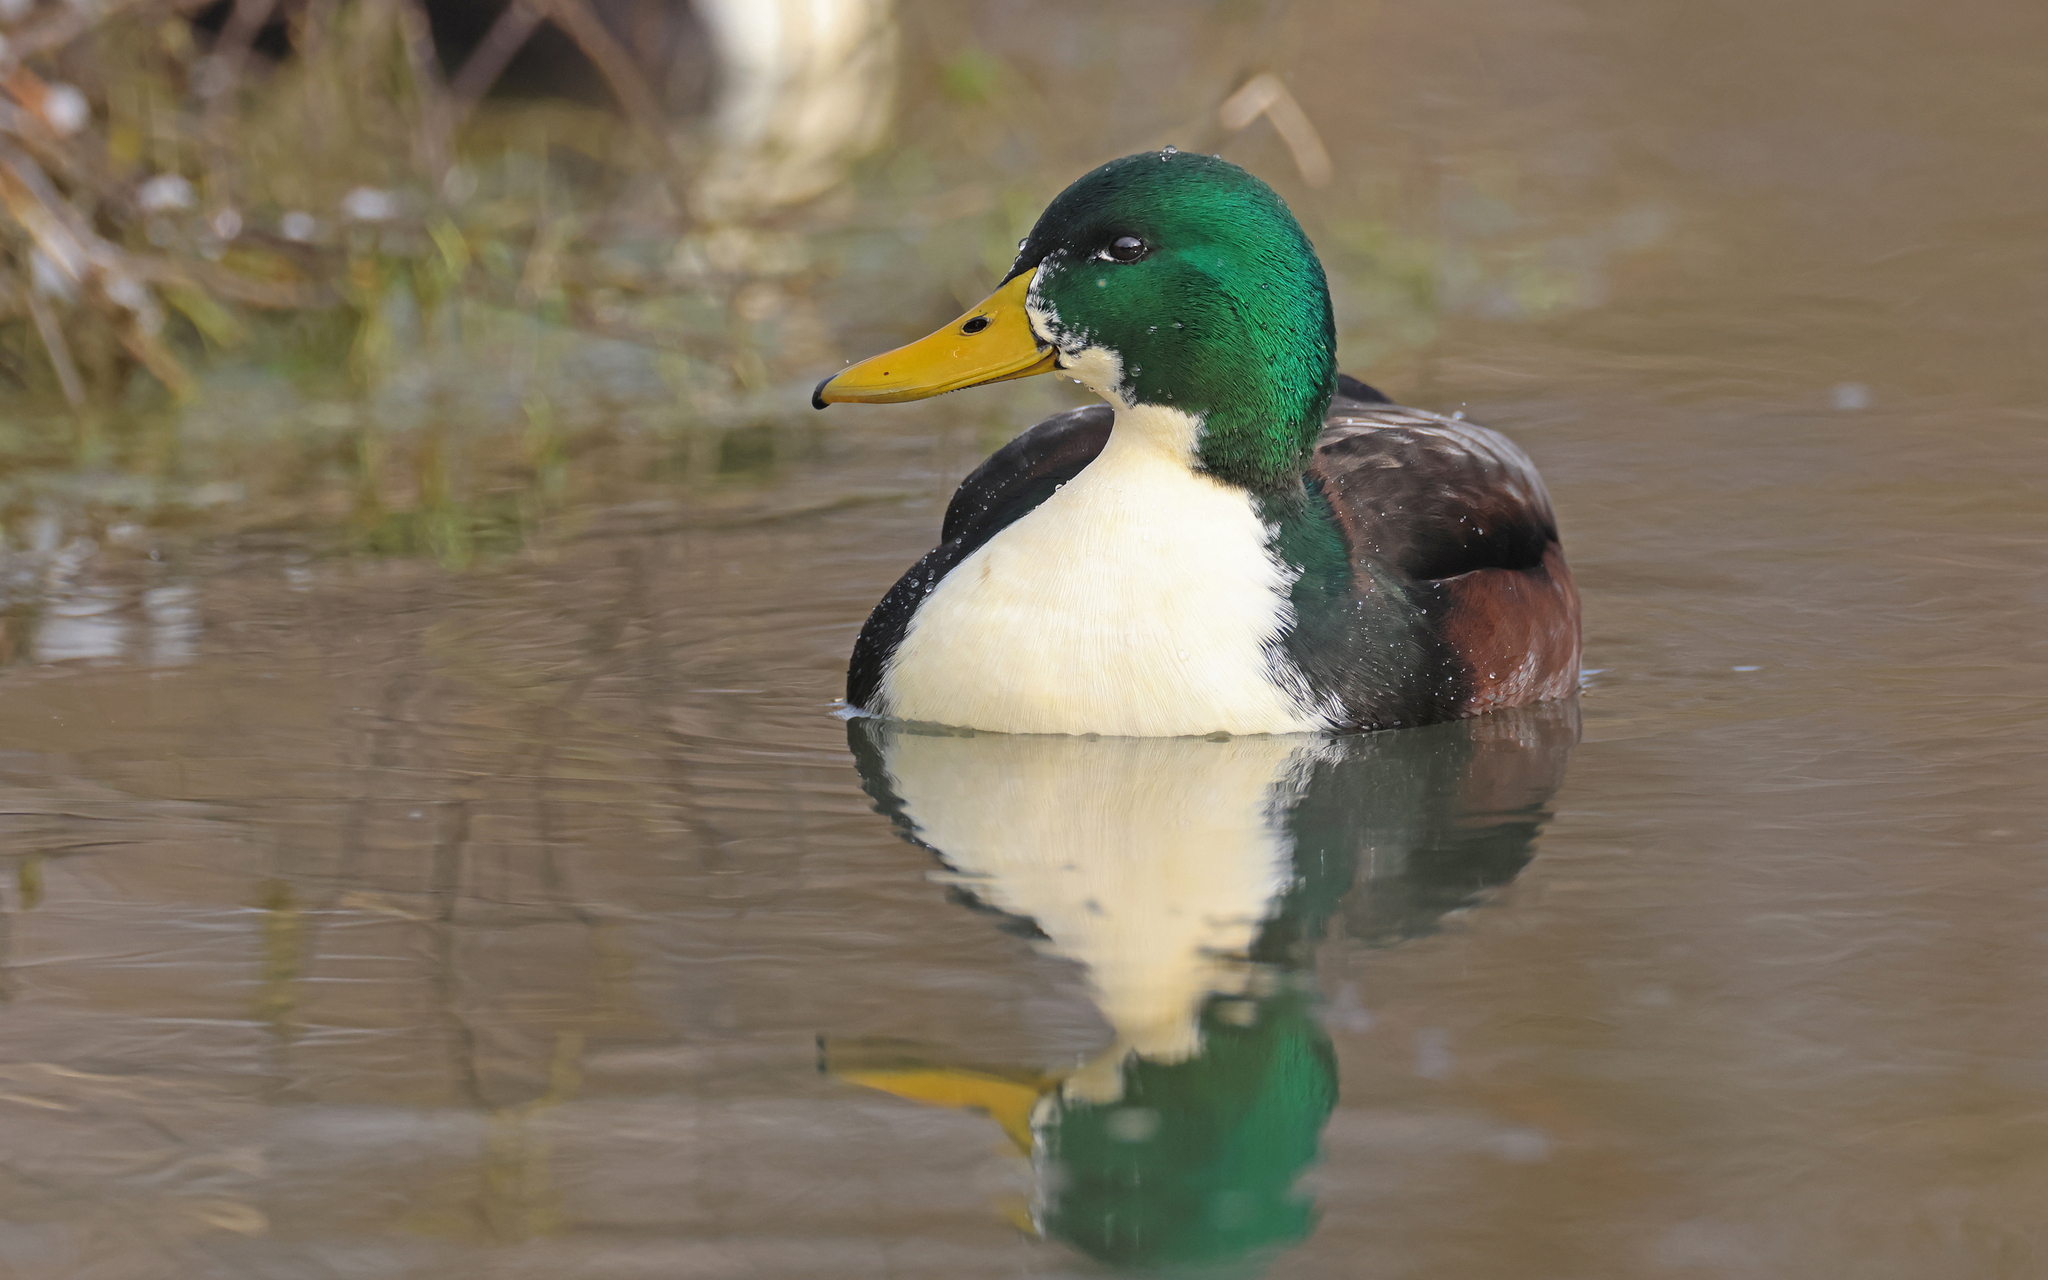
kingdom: Animalia
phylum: Chordata
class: Aves
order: Anseriformes
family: Anatidae
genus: Anas
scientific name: Anas platyrhynchos
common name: Mallard
